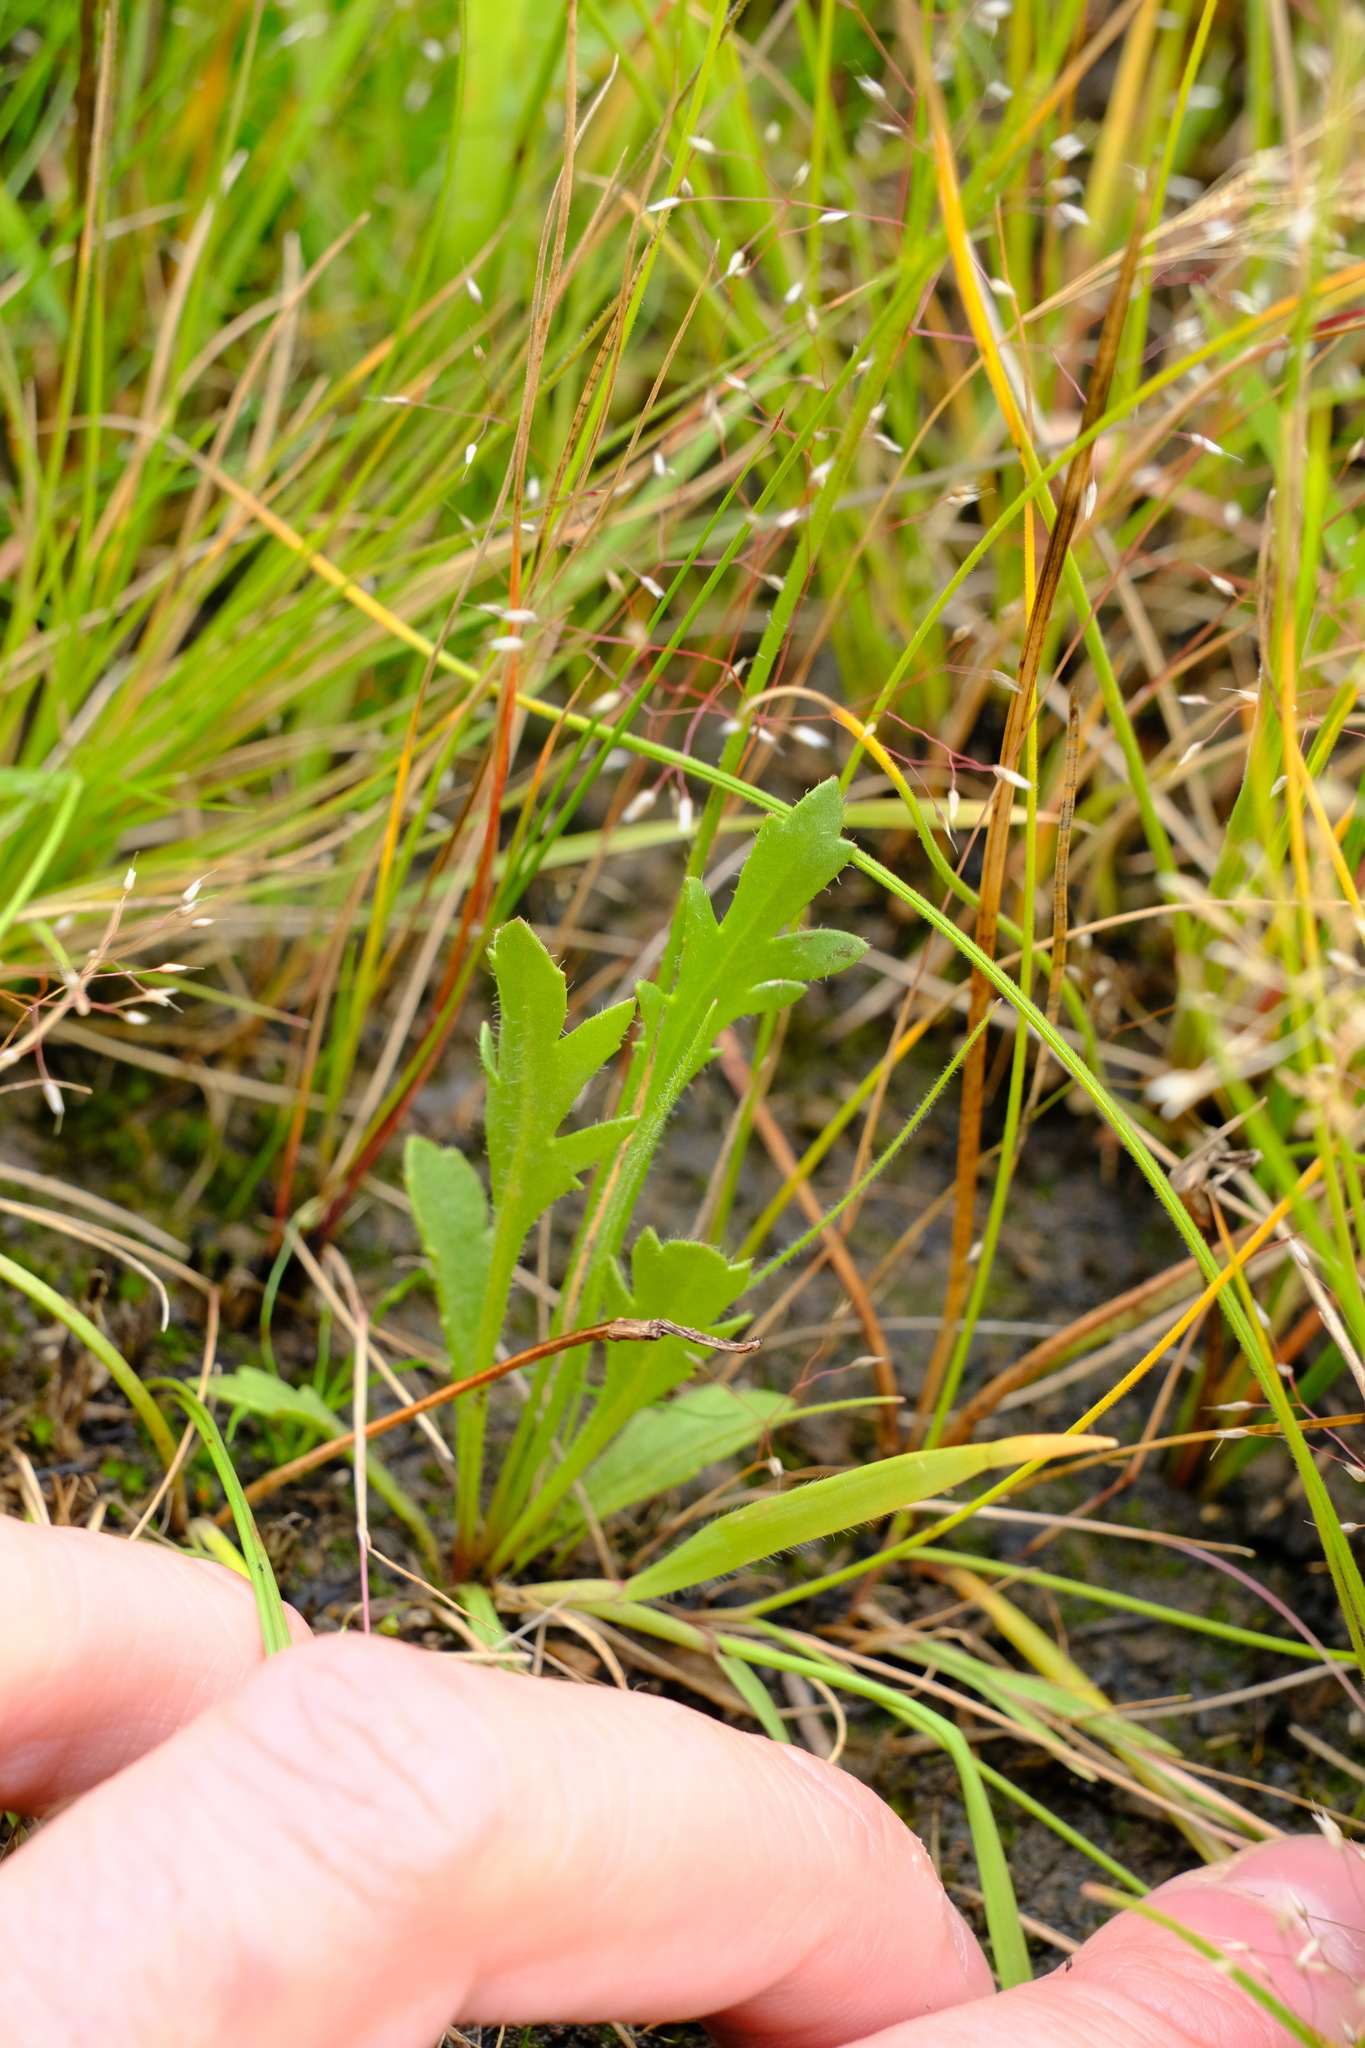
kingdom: Plantae
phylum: Tracheophyta
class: Magnoliopsida
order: Asterales
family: Goodeniaceae
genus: Goodenia
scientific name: Goodenia pinnatifida
